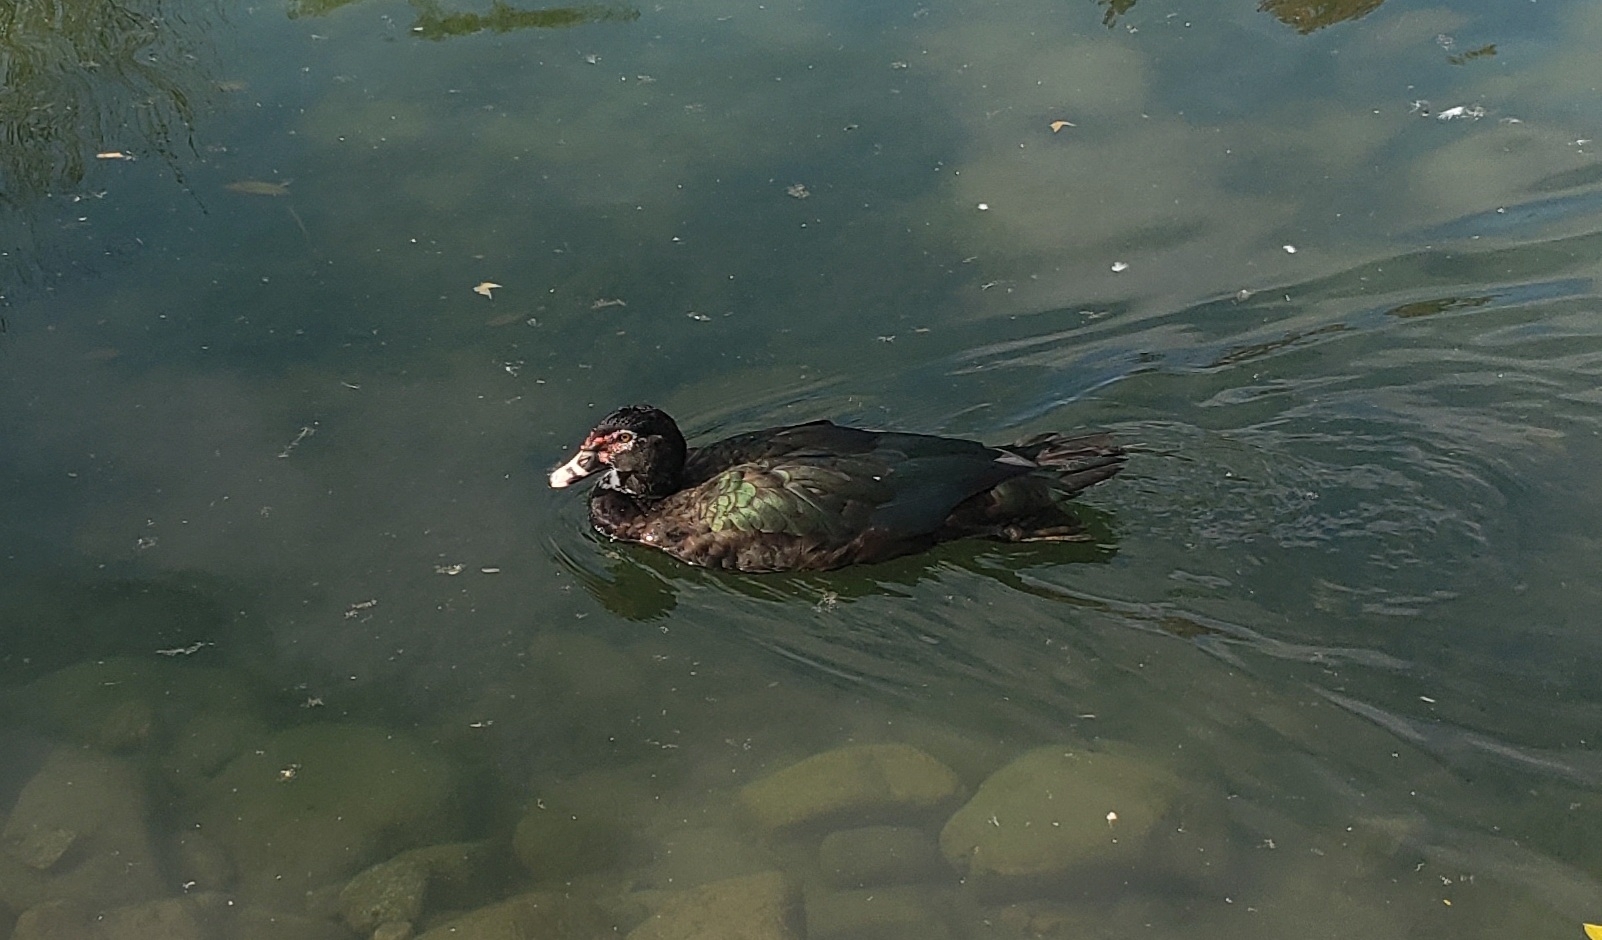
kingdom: Animalia
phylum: Chordata
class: Aves
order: Anseriformes
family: Anatidae
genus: Cairina
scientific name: Cairina moschata
